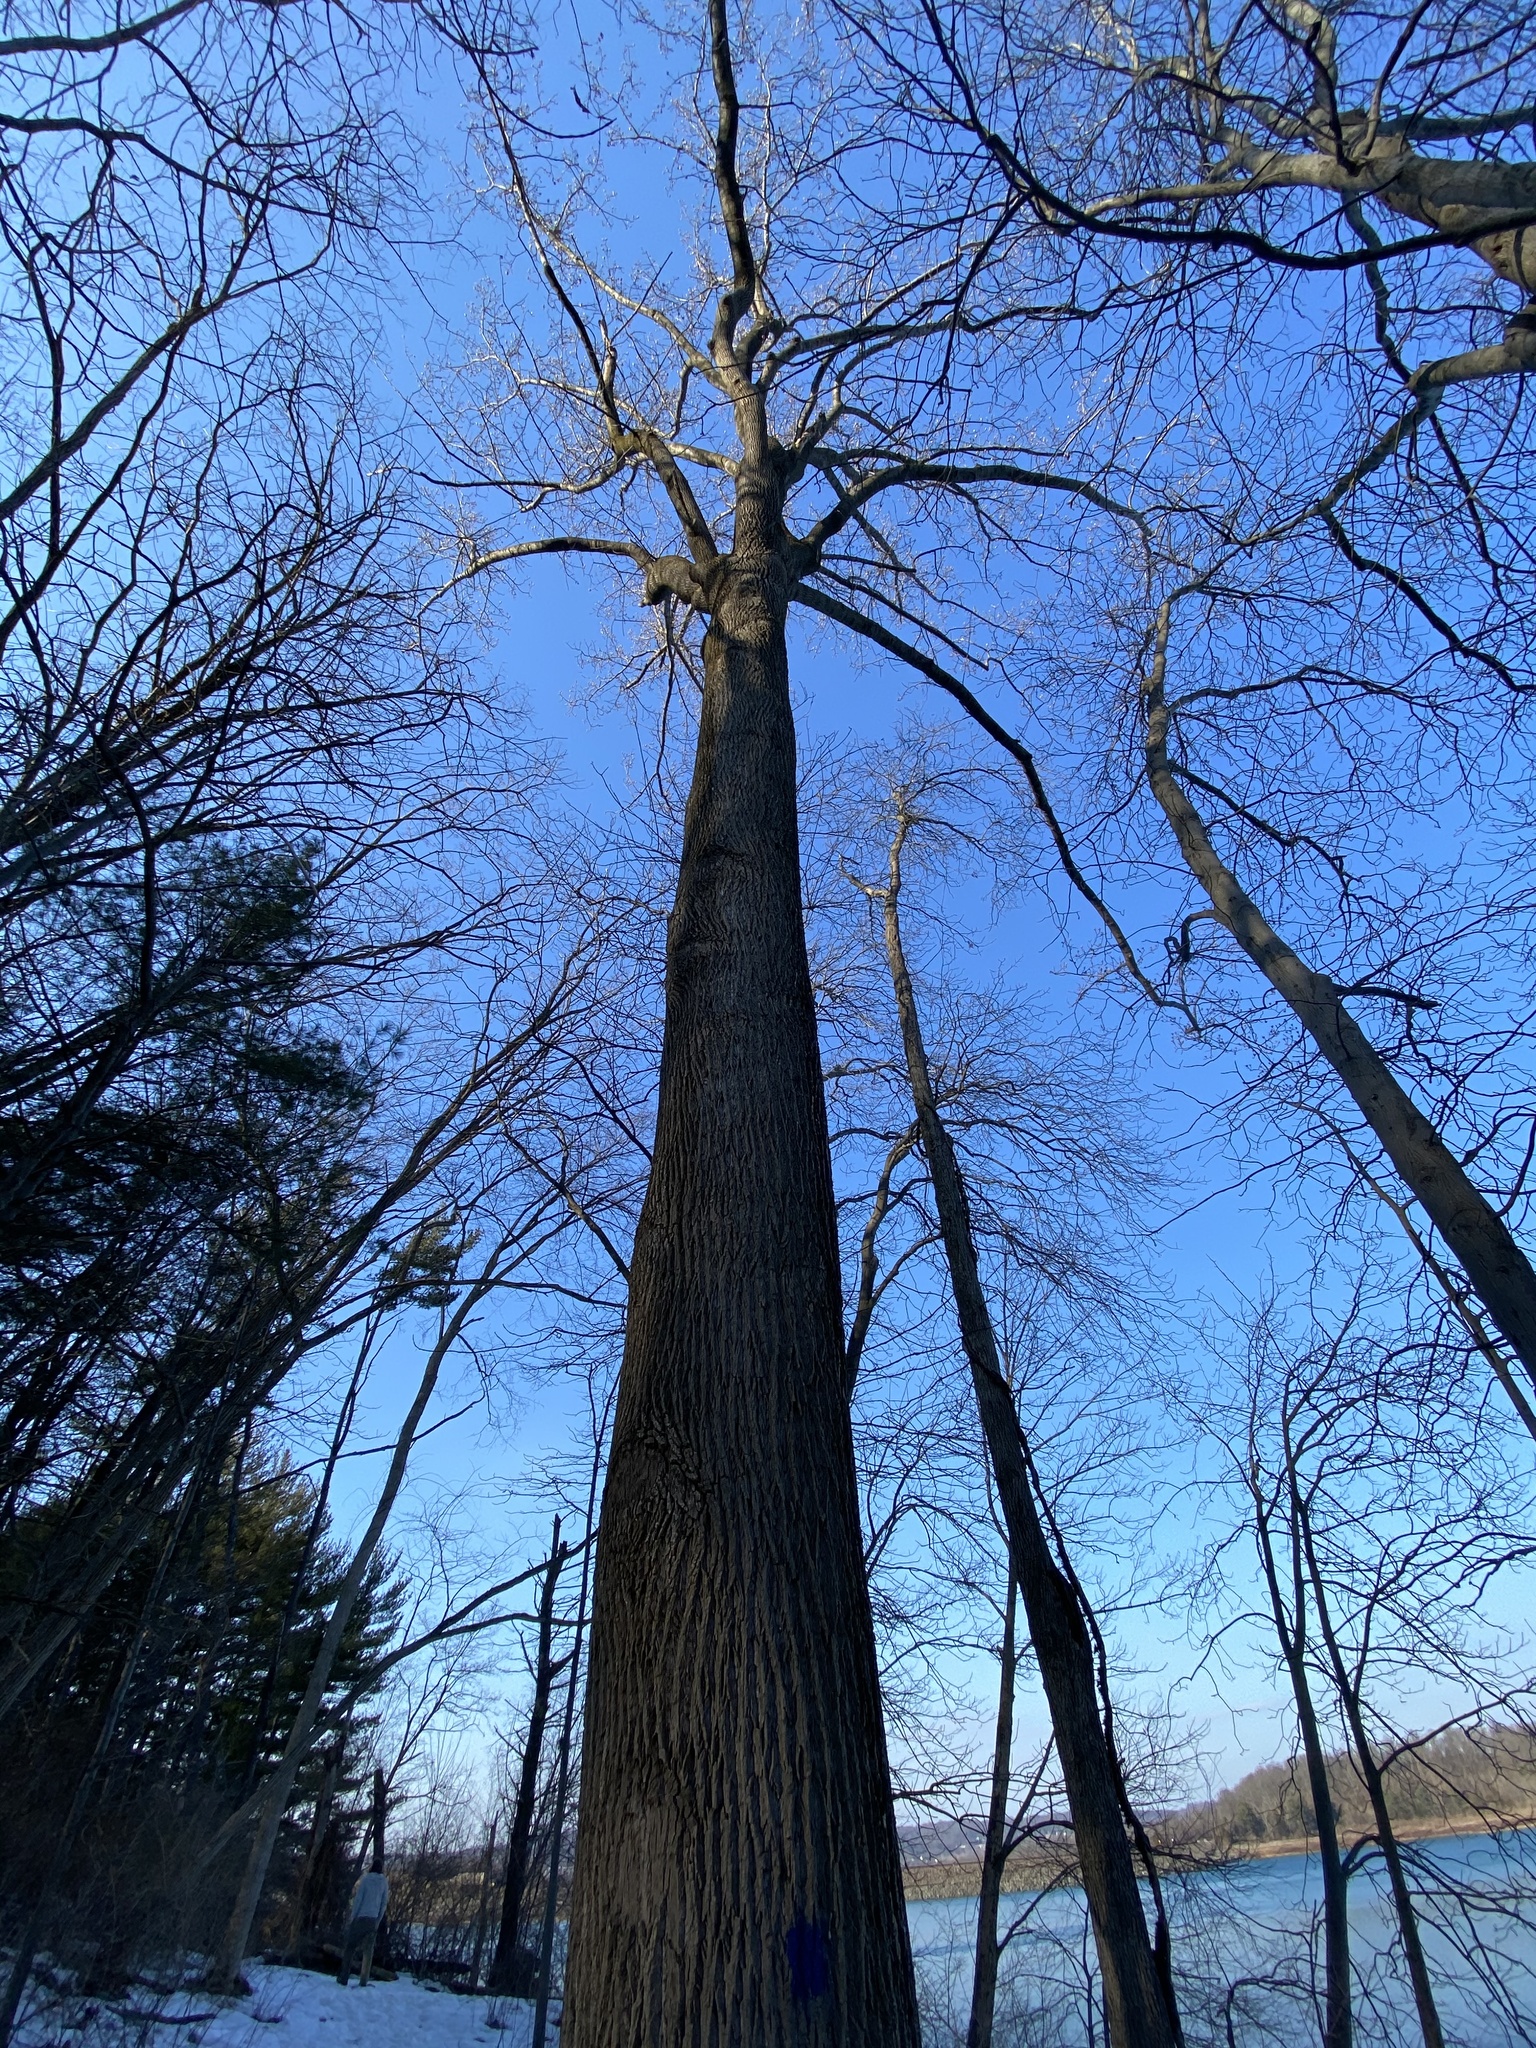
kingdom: Plantae
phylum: Tracheophyta
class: Magnoliopsida
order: Magnoliales
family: Magnoliaceae
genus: Liriodendron
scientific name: Liriodendron tulipifera
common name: Tulip tree
